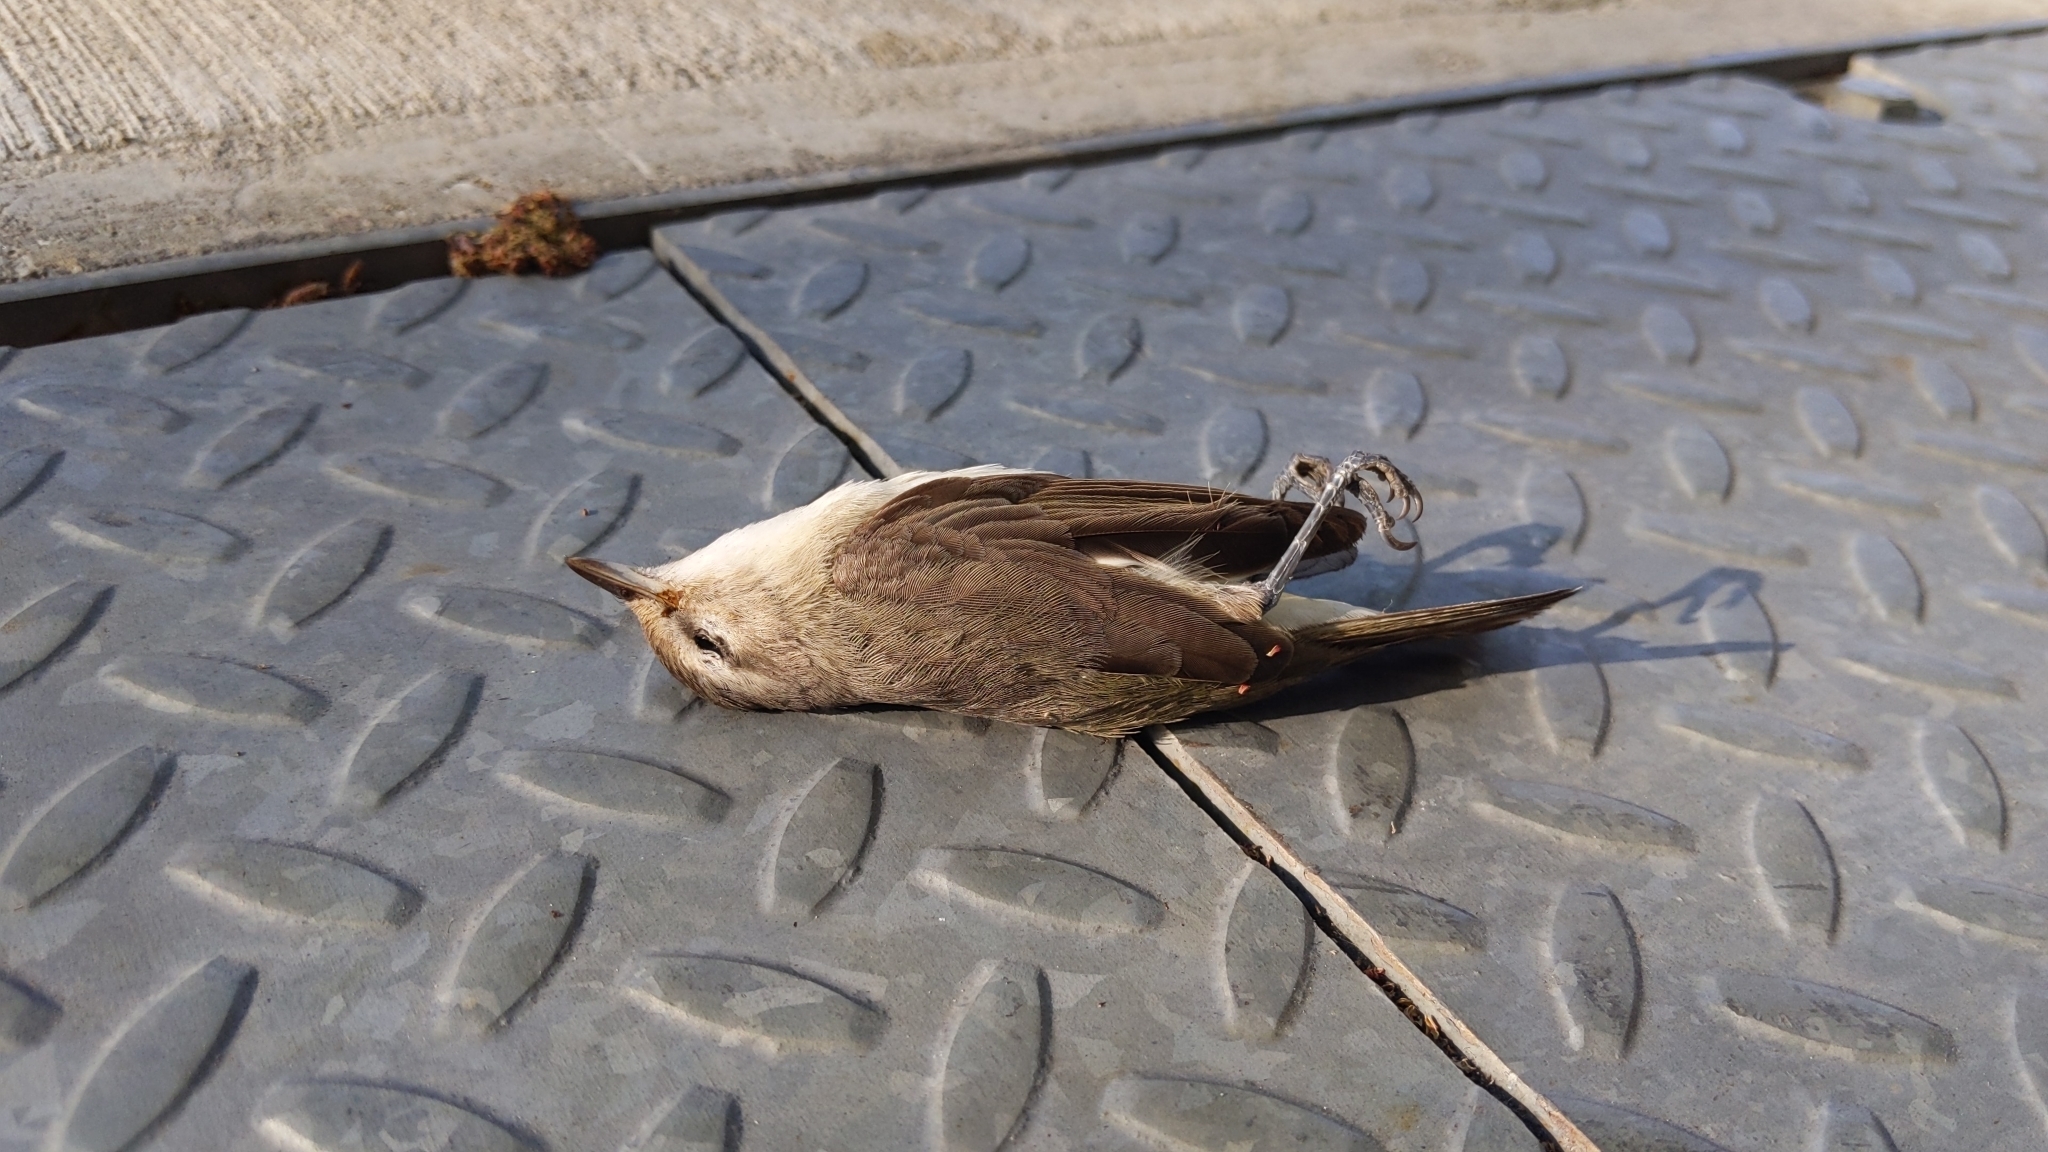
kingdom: Animalia
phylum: Chordata
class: Aves
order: Passeriformes
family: Vireonidae
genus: Vireo
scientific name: Vireo gilvus
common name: Warbling vireo
